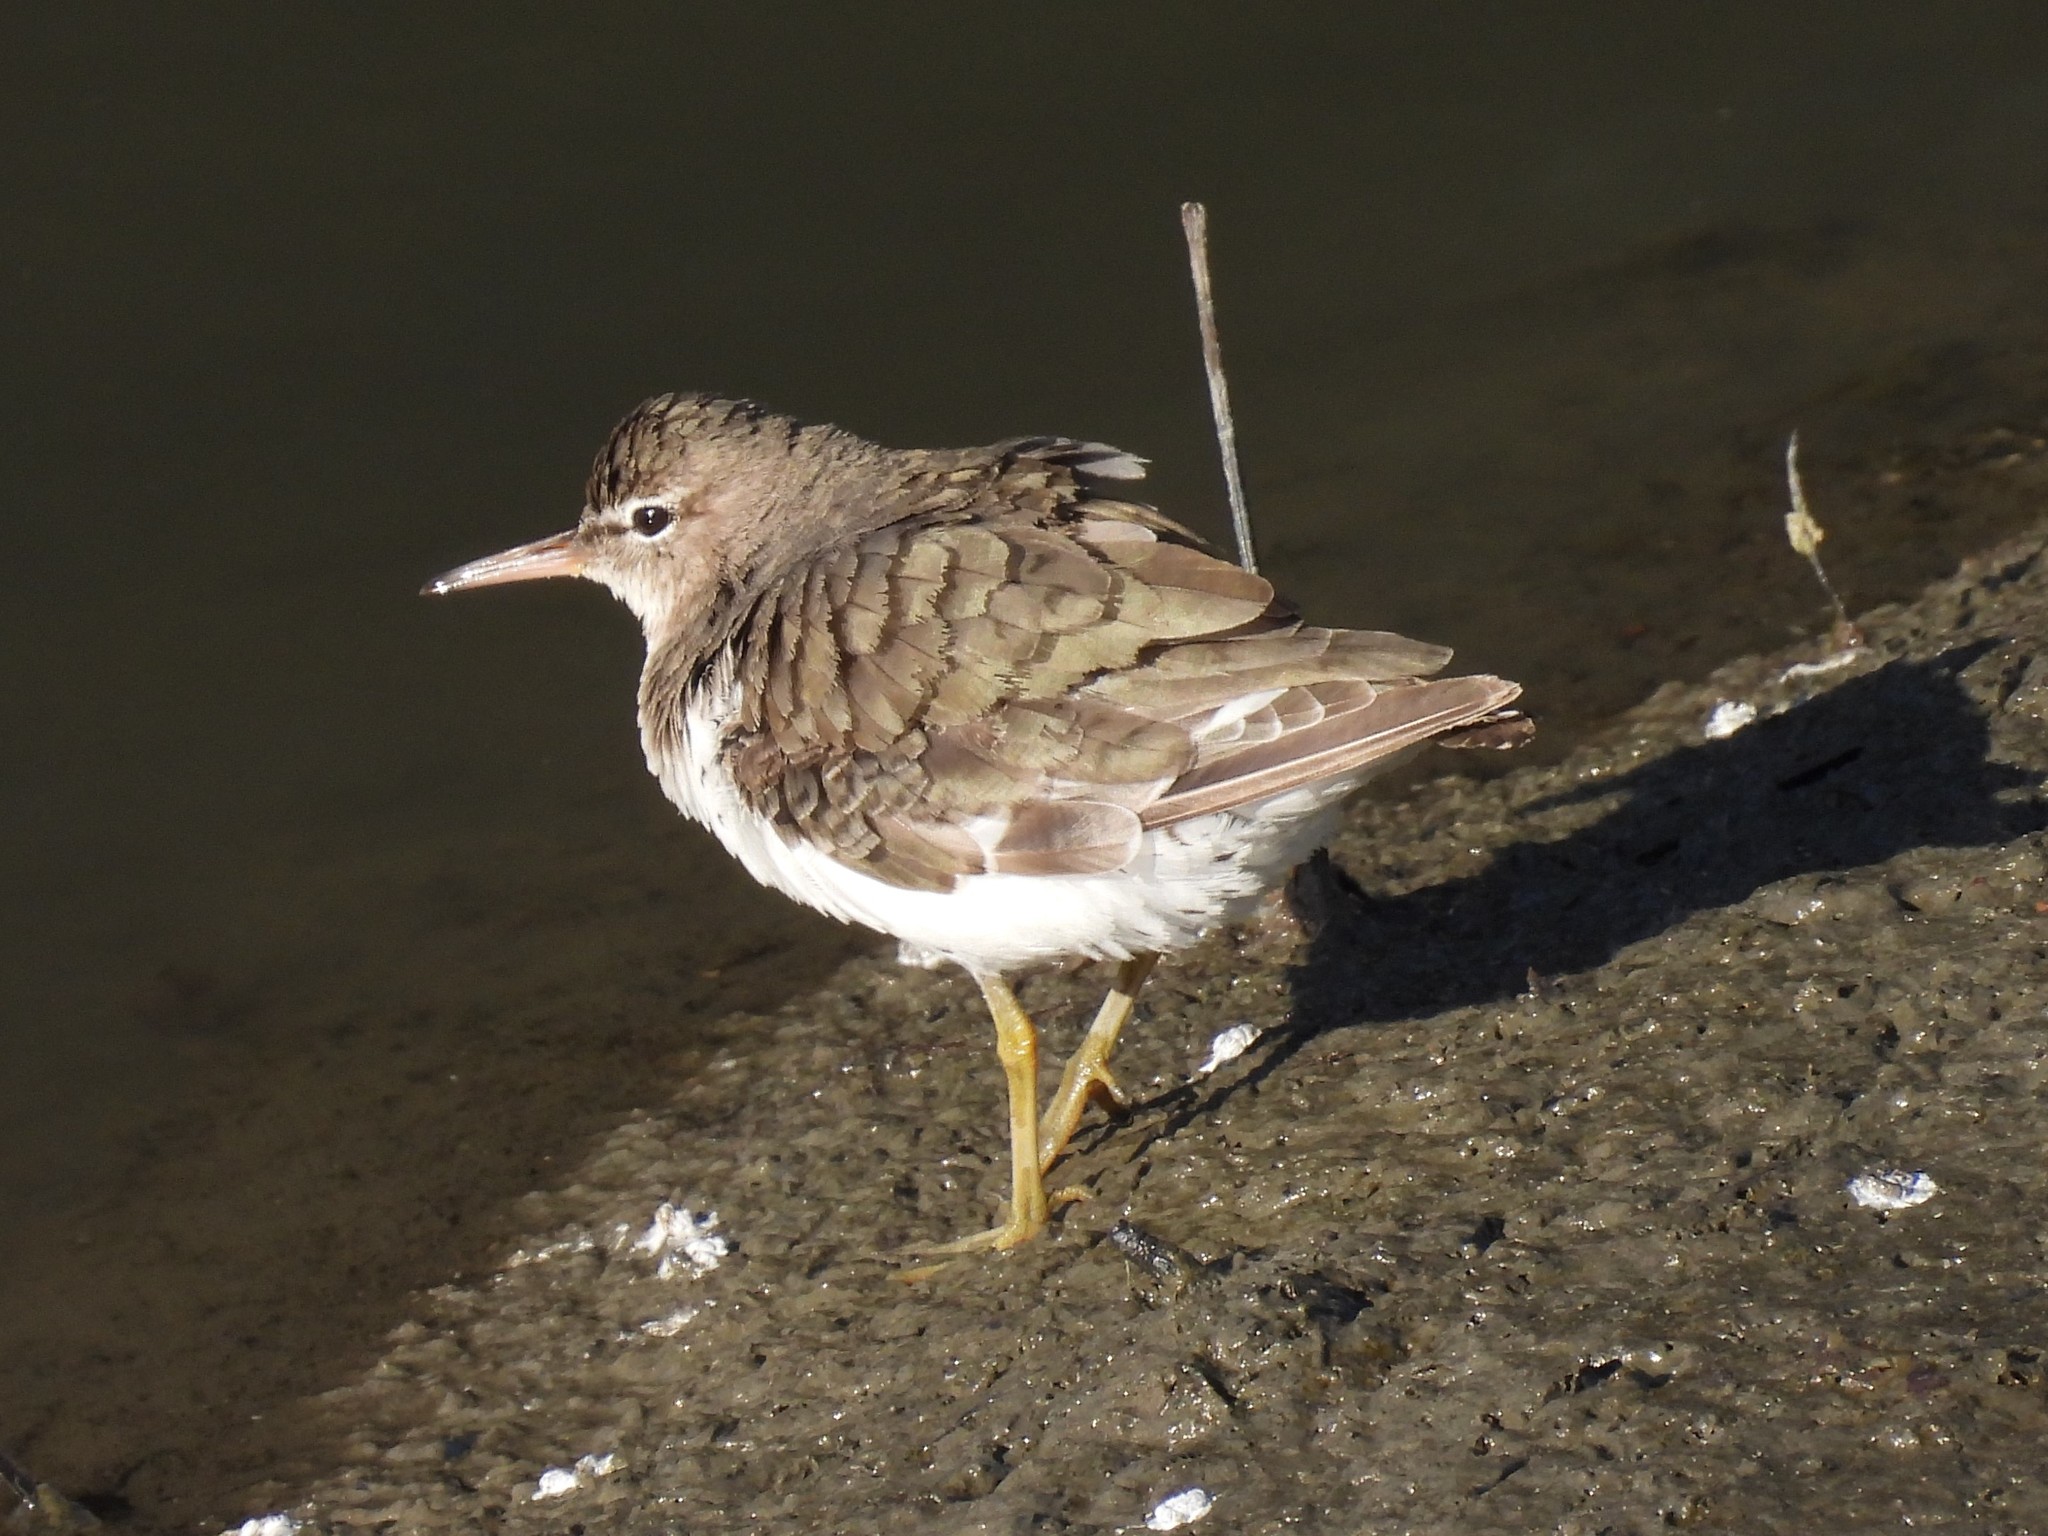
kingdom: Animalia
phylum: Chordata
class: Aves
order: Charadriiformes
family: Scolopacidae
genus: Actitis
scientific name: Actitis macularius
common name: Spotted sandpiper
